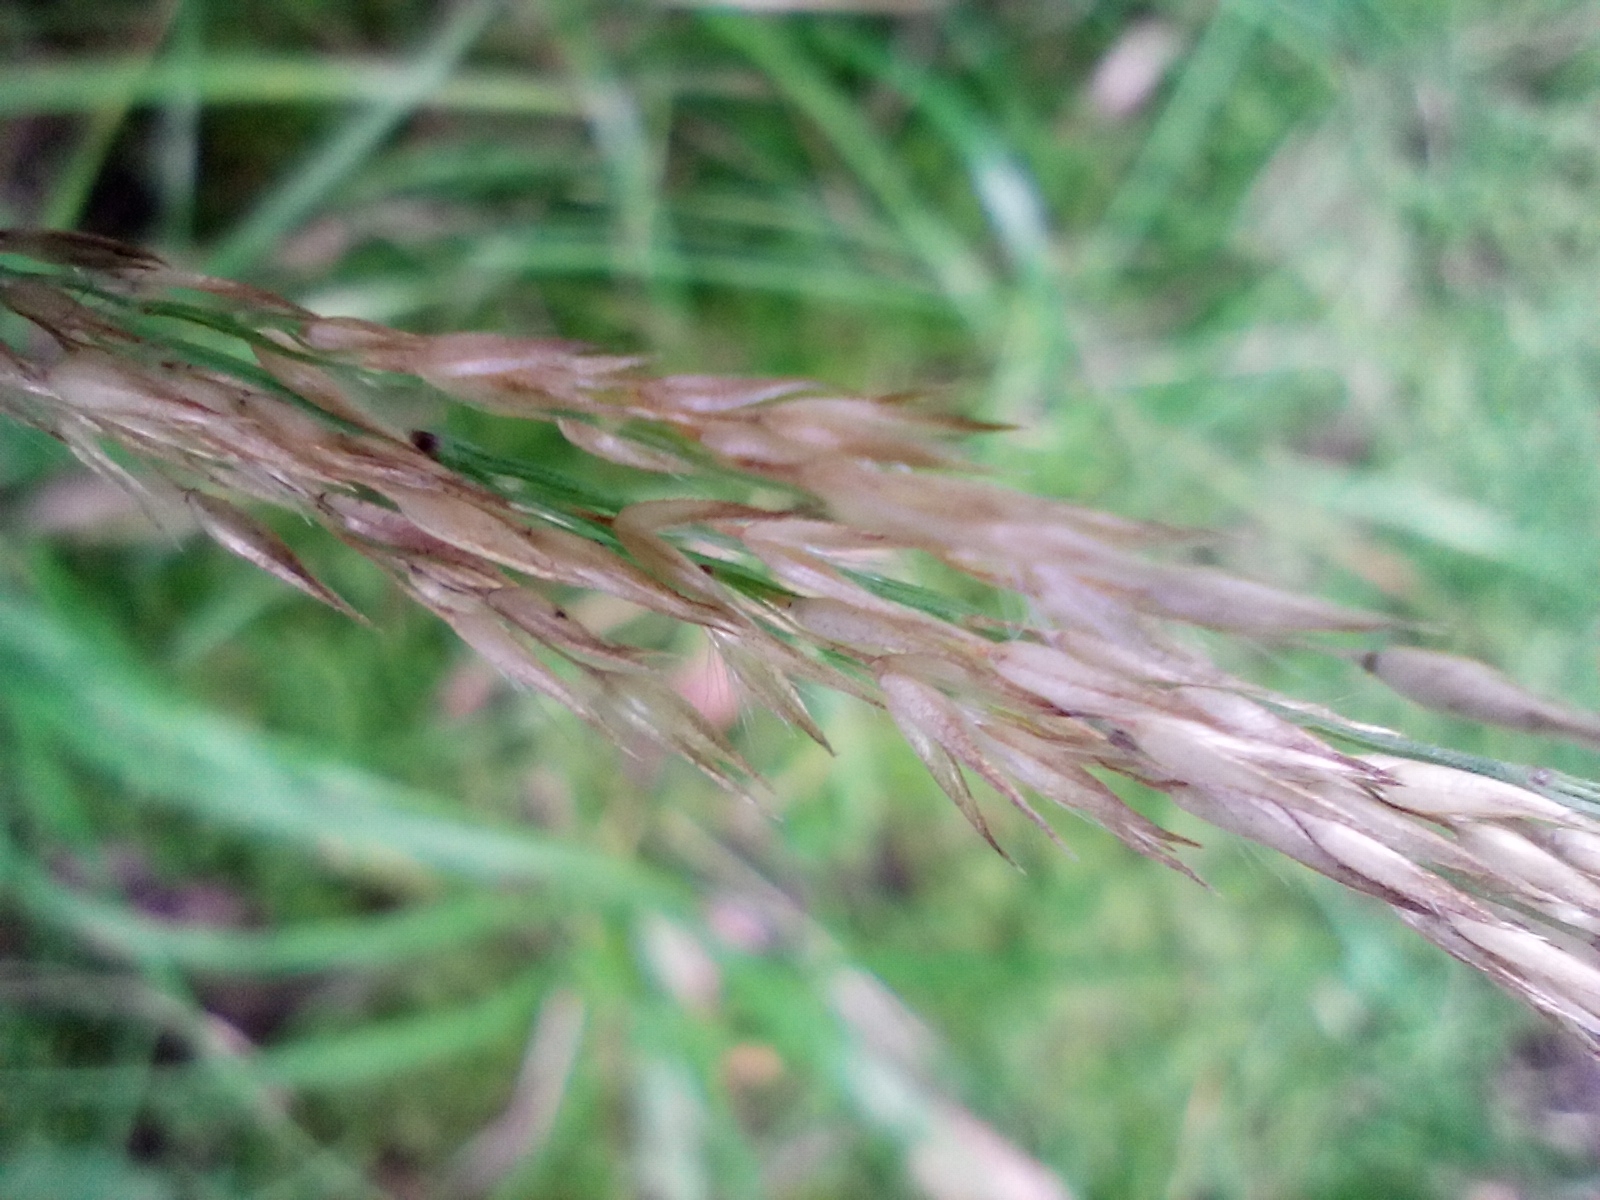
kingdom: Plantae
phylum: Tracheophyta
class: Liliopsida
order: Poales
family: Poaceae
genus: Calamagrostis
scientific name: Calamagrostis villosa
